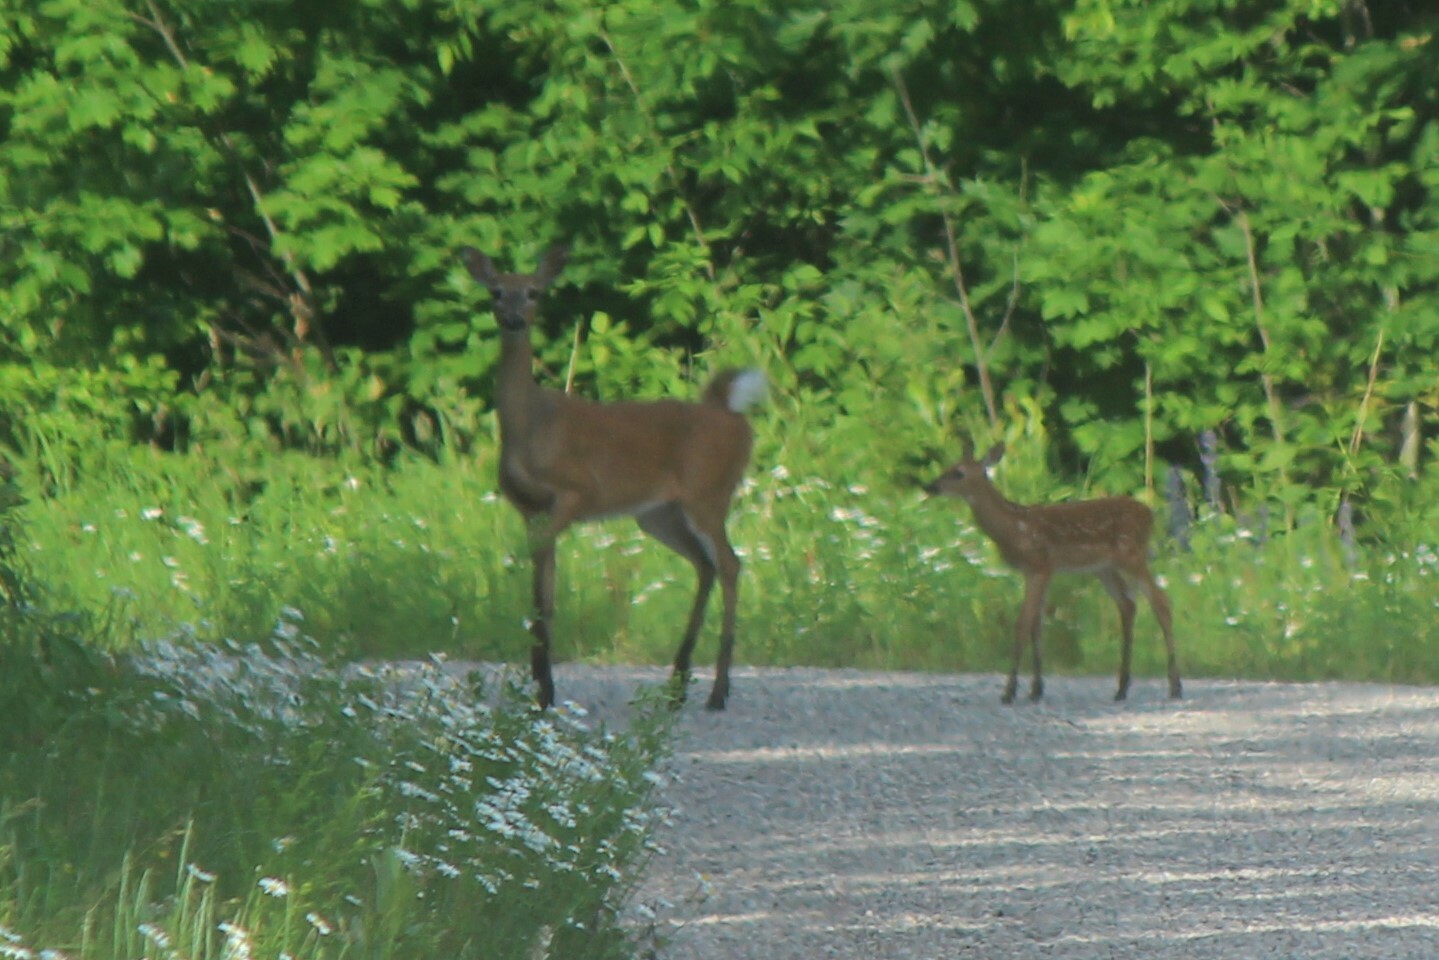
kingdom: Animalia
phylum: Chordata
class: Mammalia
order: Artiodactyla
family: Cervidae
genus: Odocoileus
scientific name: Odocoileus virginianus
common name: White-tailed deer
